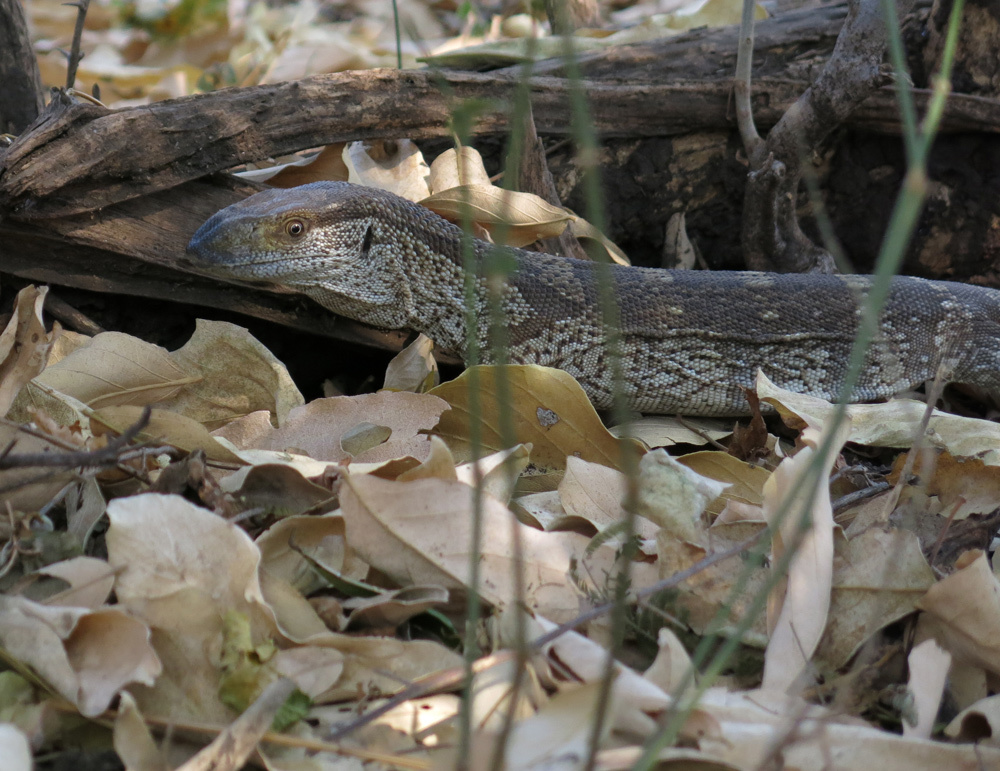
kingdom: Animalia
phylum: Chordata
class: Squamata
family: Varanidae
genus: Varanus
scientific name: Varanus albigularis
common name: White-throated monitor
